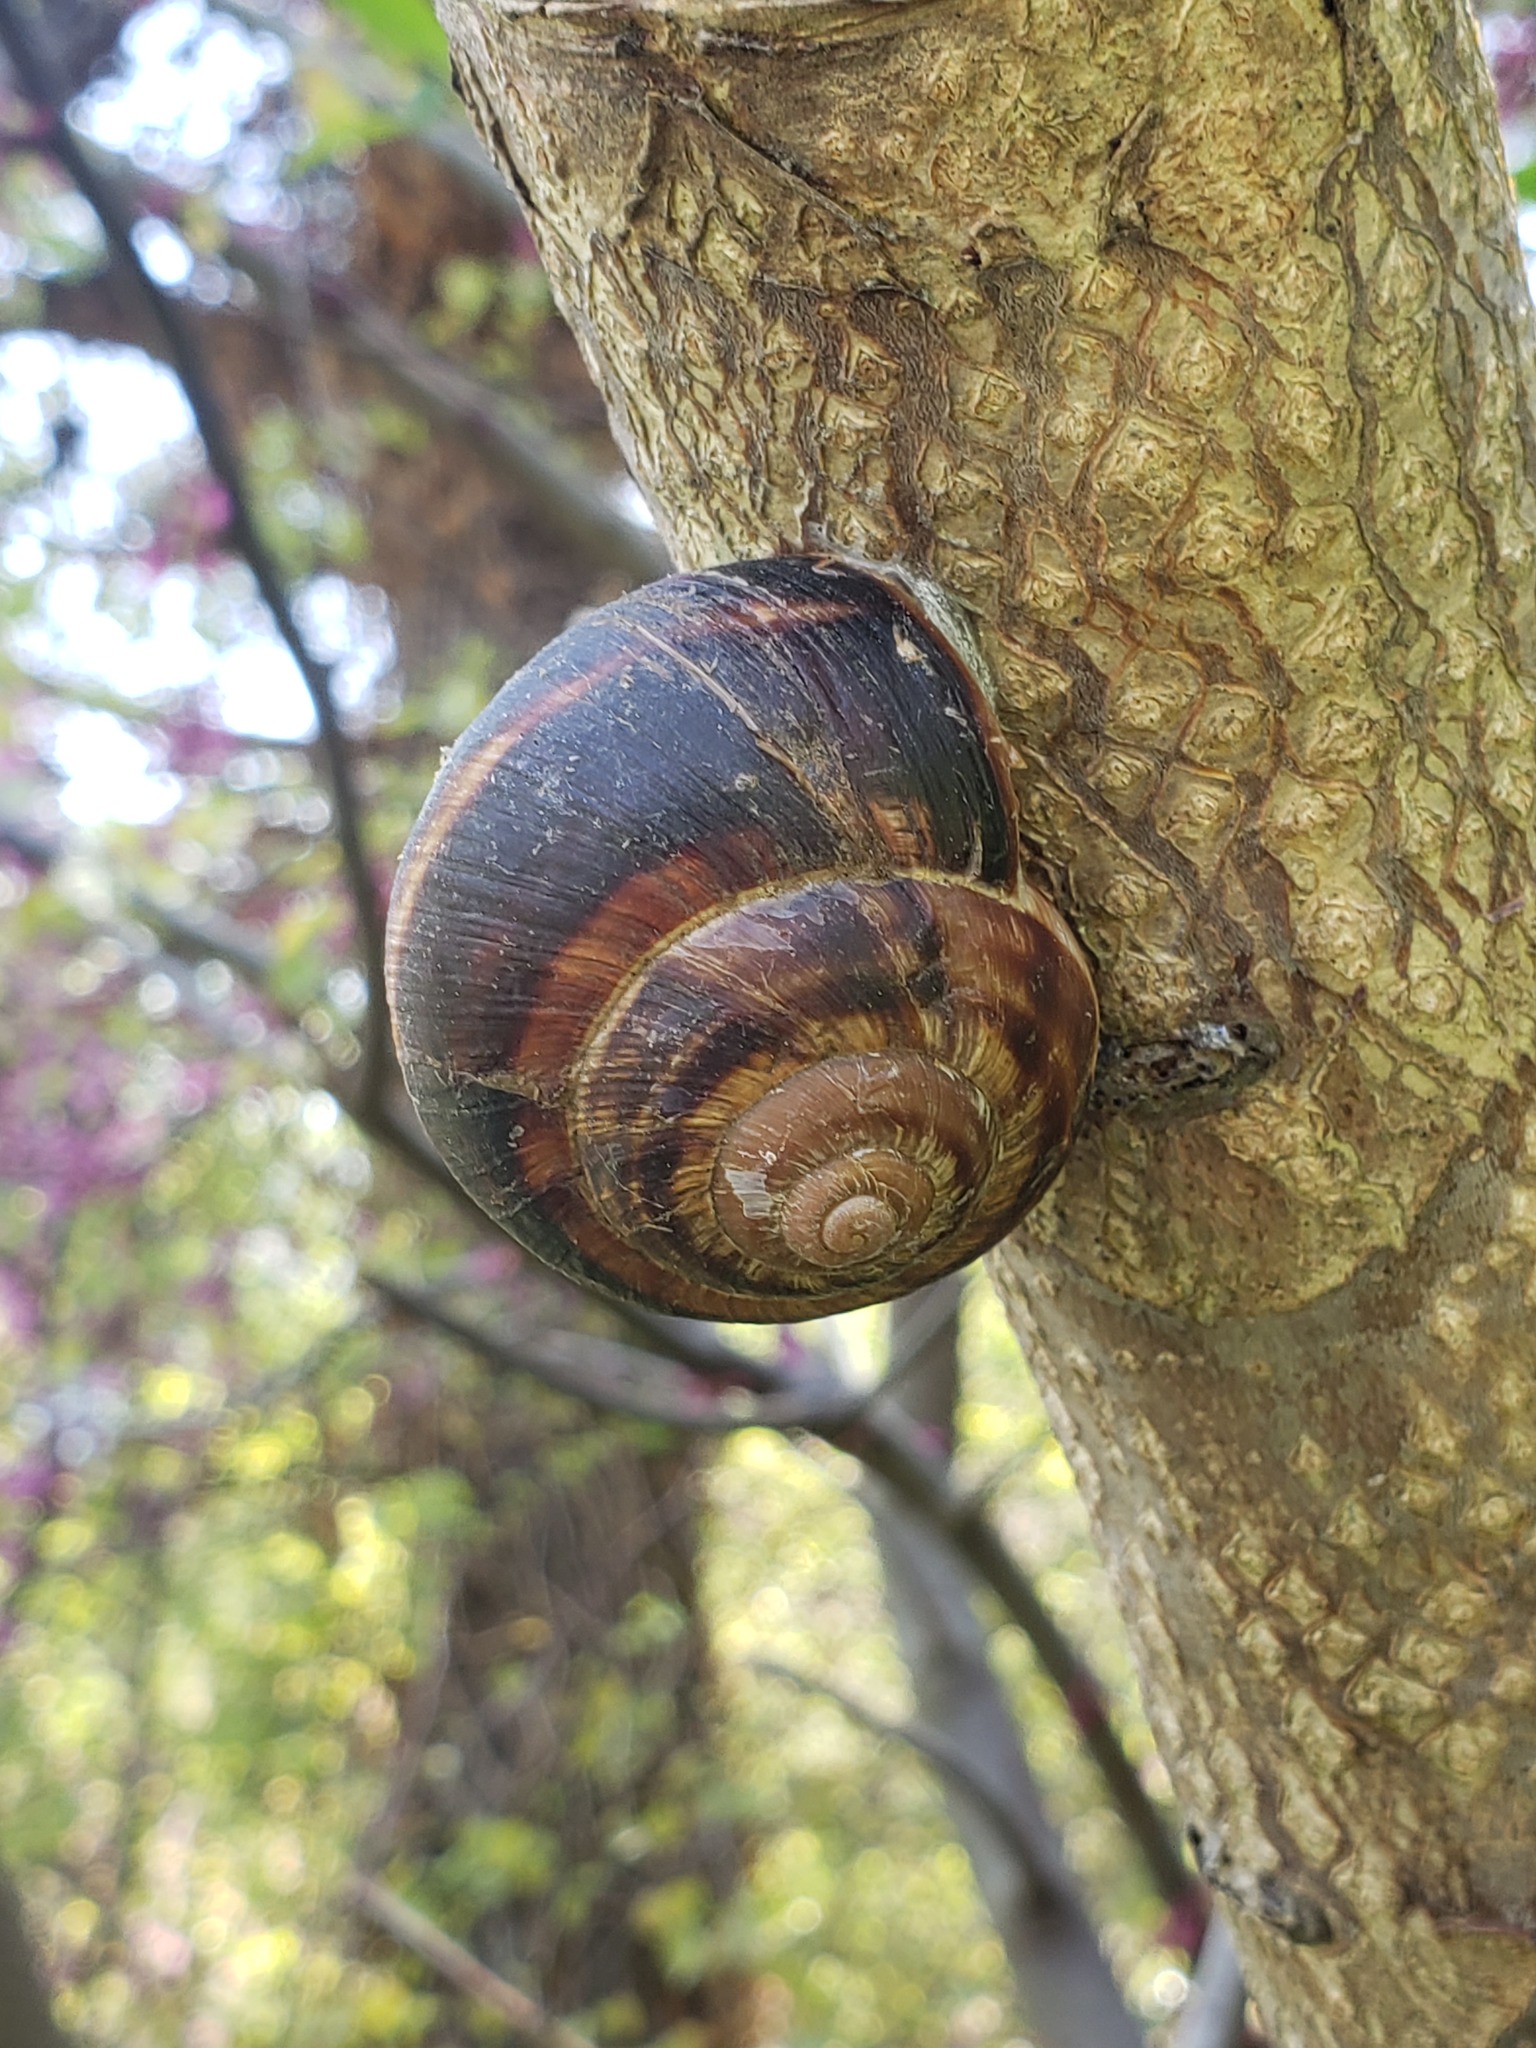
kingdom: Animalia
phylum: Mollusca
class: Gastropoda
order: Stylommatophora
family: Helicidae
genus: Helix
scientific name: Helix lucorum
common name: Turkish snail
